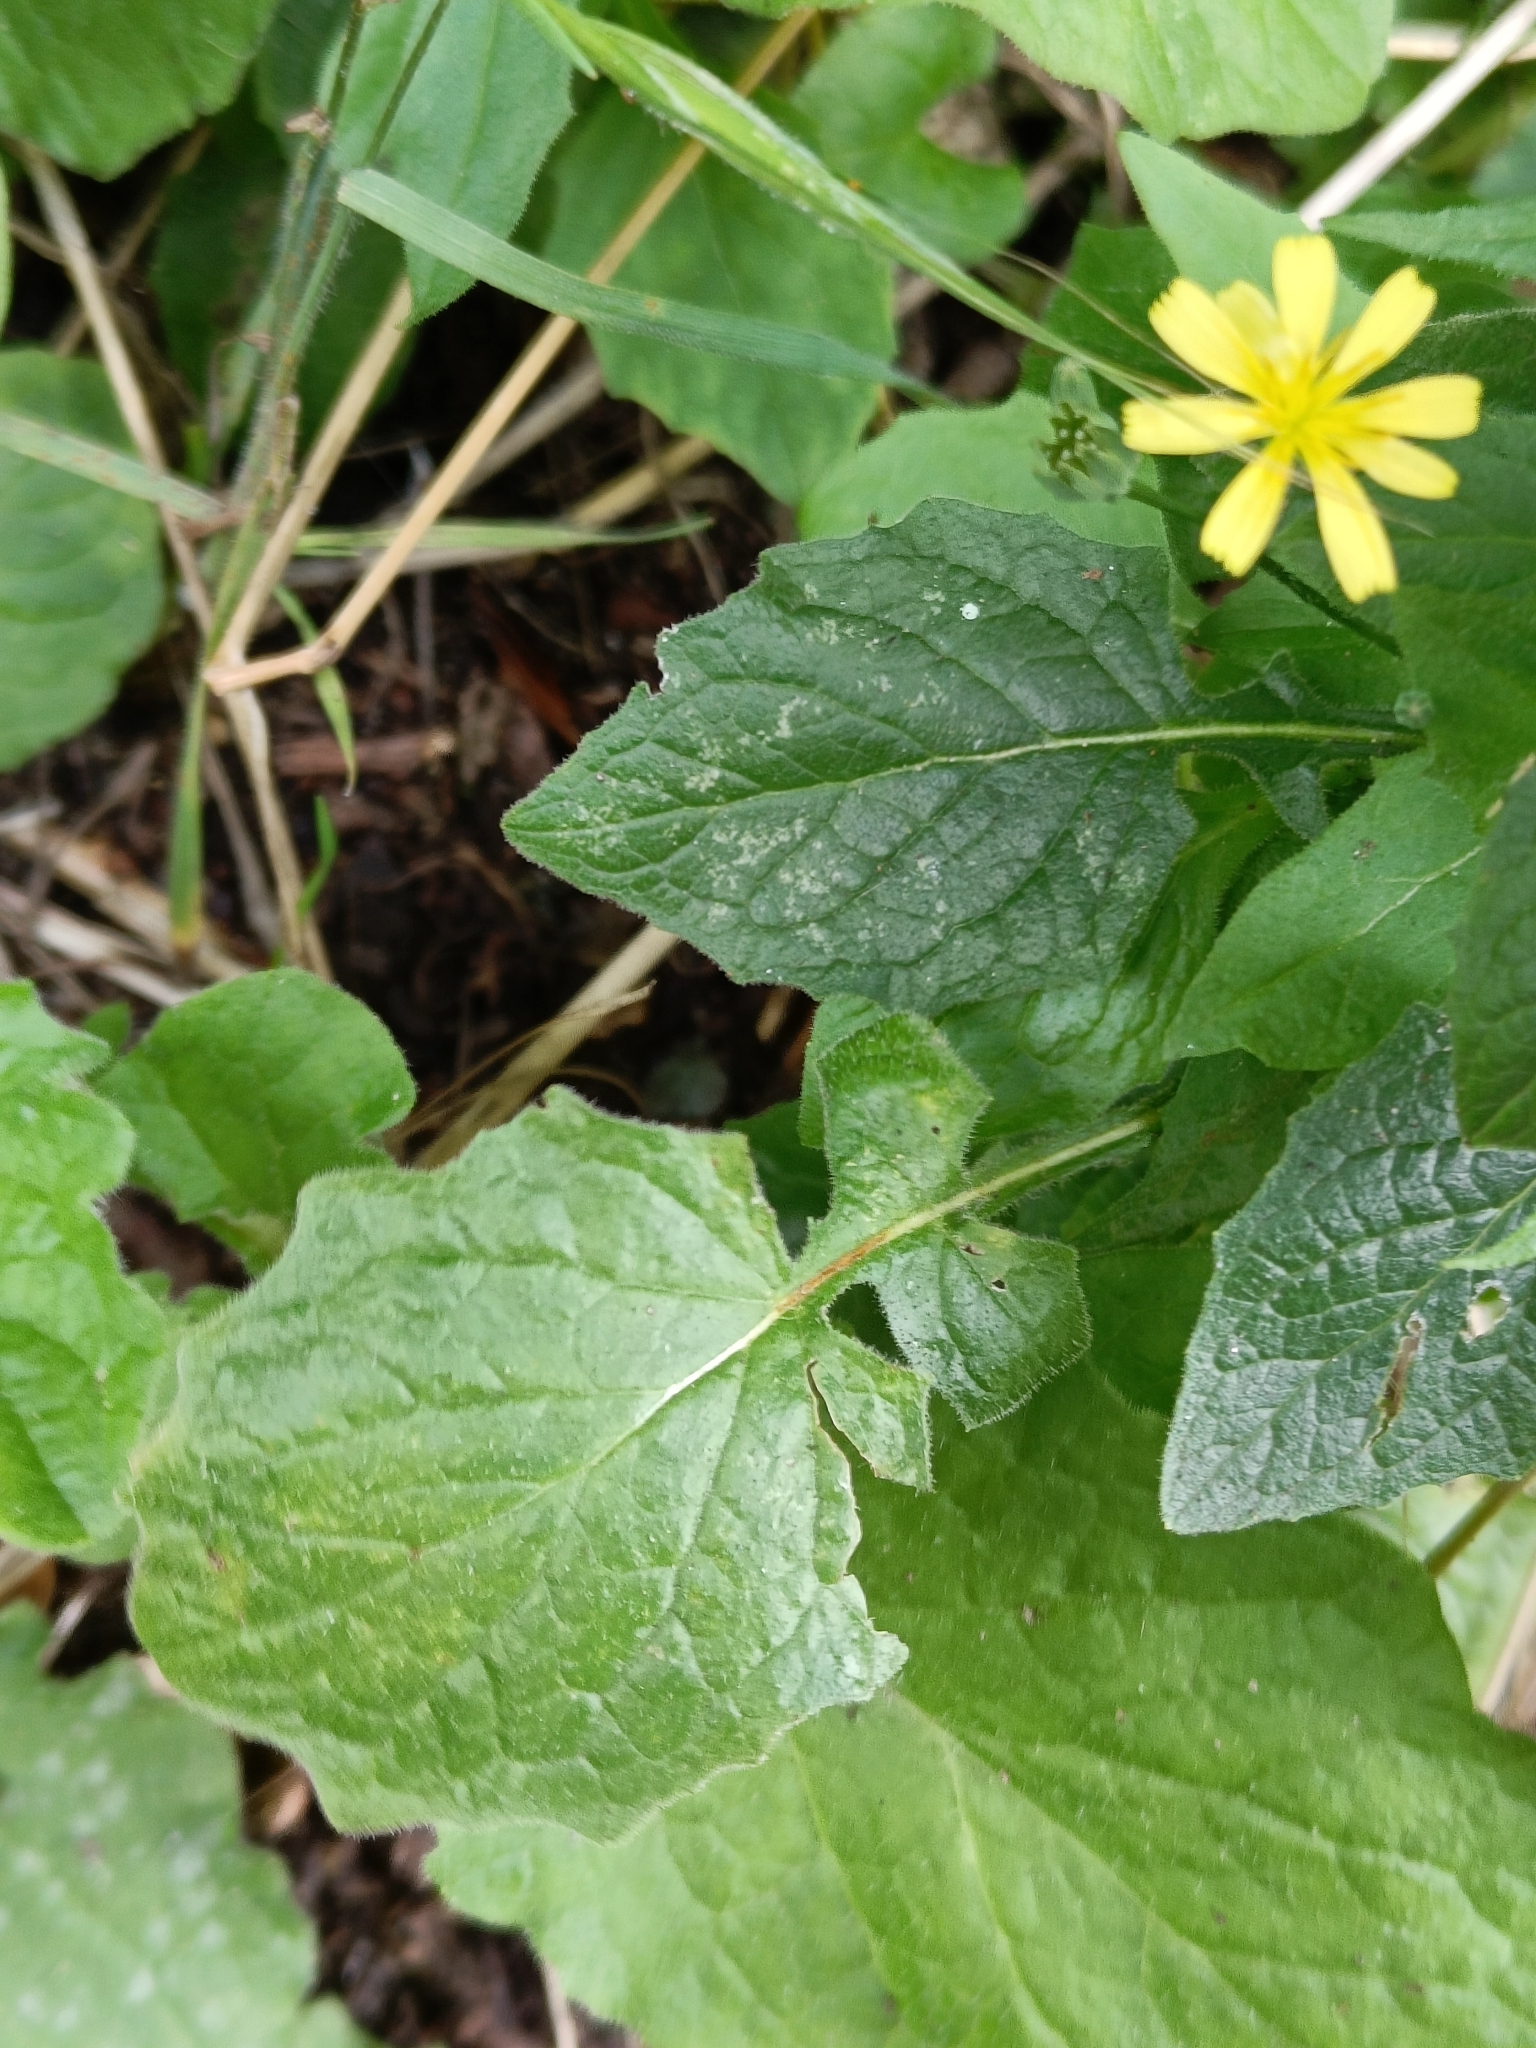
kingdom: Plantae
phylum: Tracheophyta
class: Magnoliopsida
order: Asterales
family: Asteraceae
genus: Lapsana
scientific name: Lapsana communis
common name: Nipplewort
